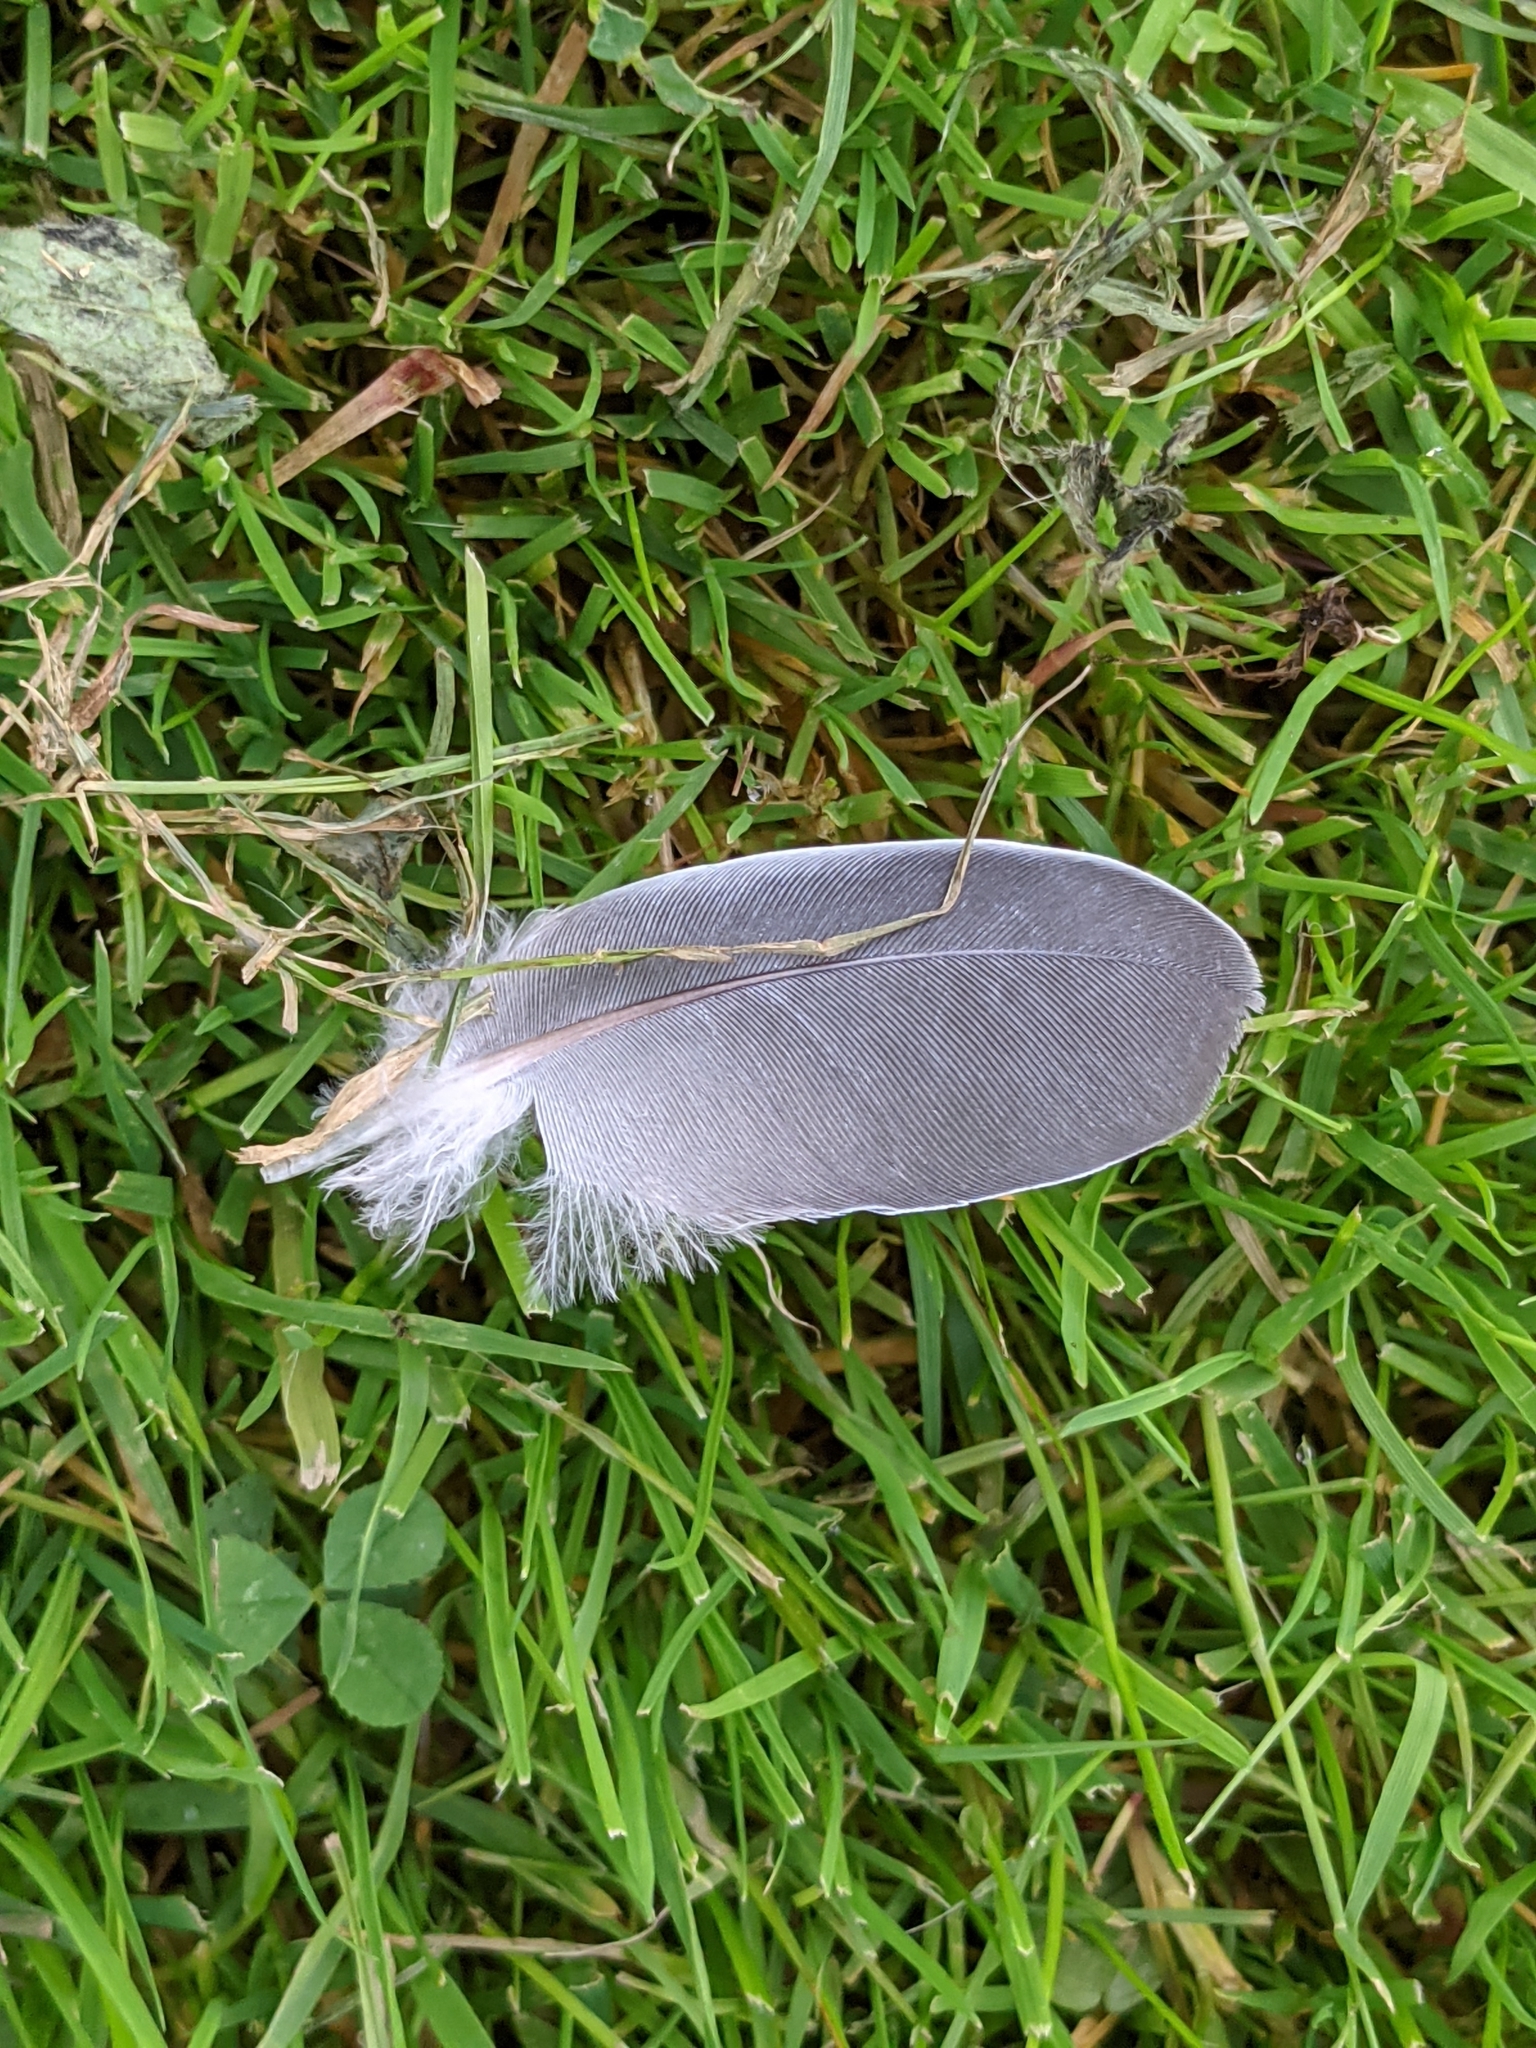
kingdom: Animalia
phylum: Chordata
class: Aves
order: Columbiformes
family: Columbidae
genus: Columba
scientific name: Columba palumbus
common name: Common wood pigeon
